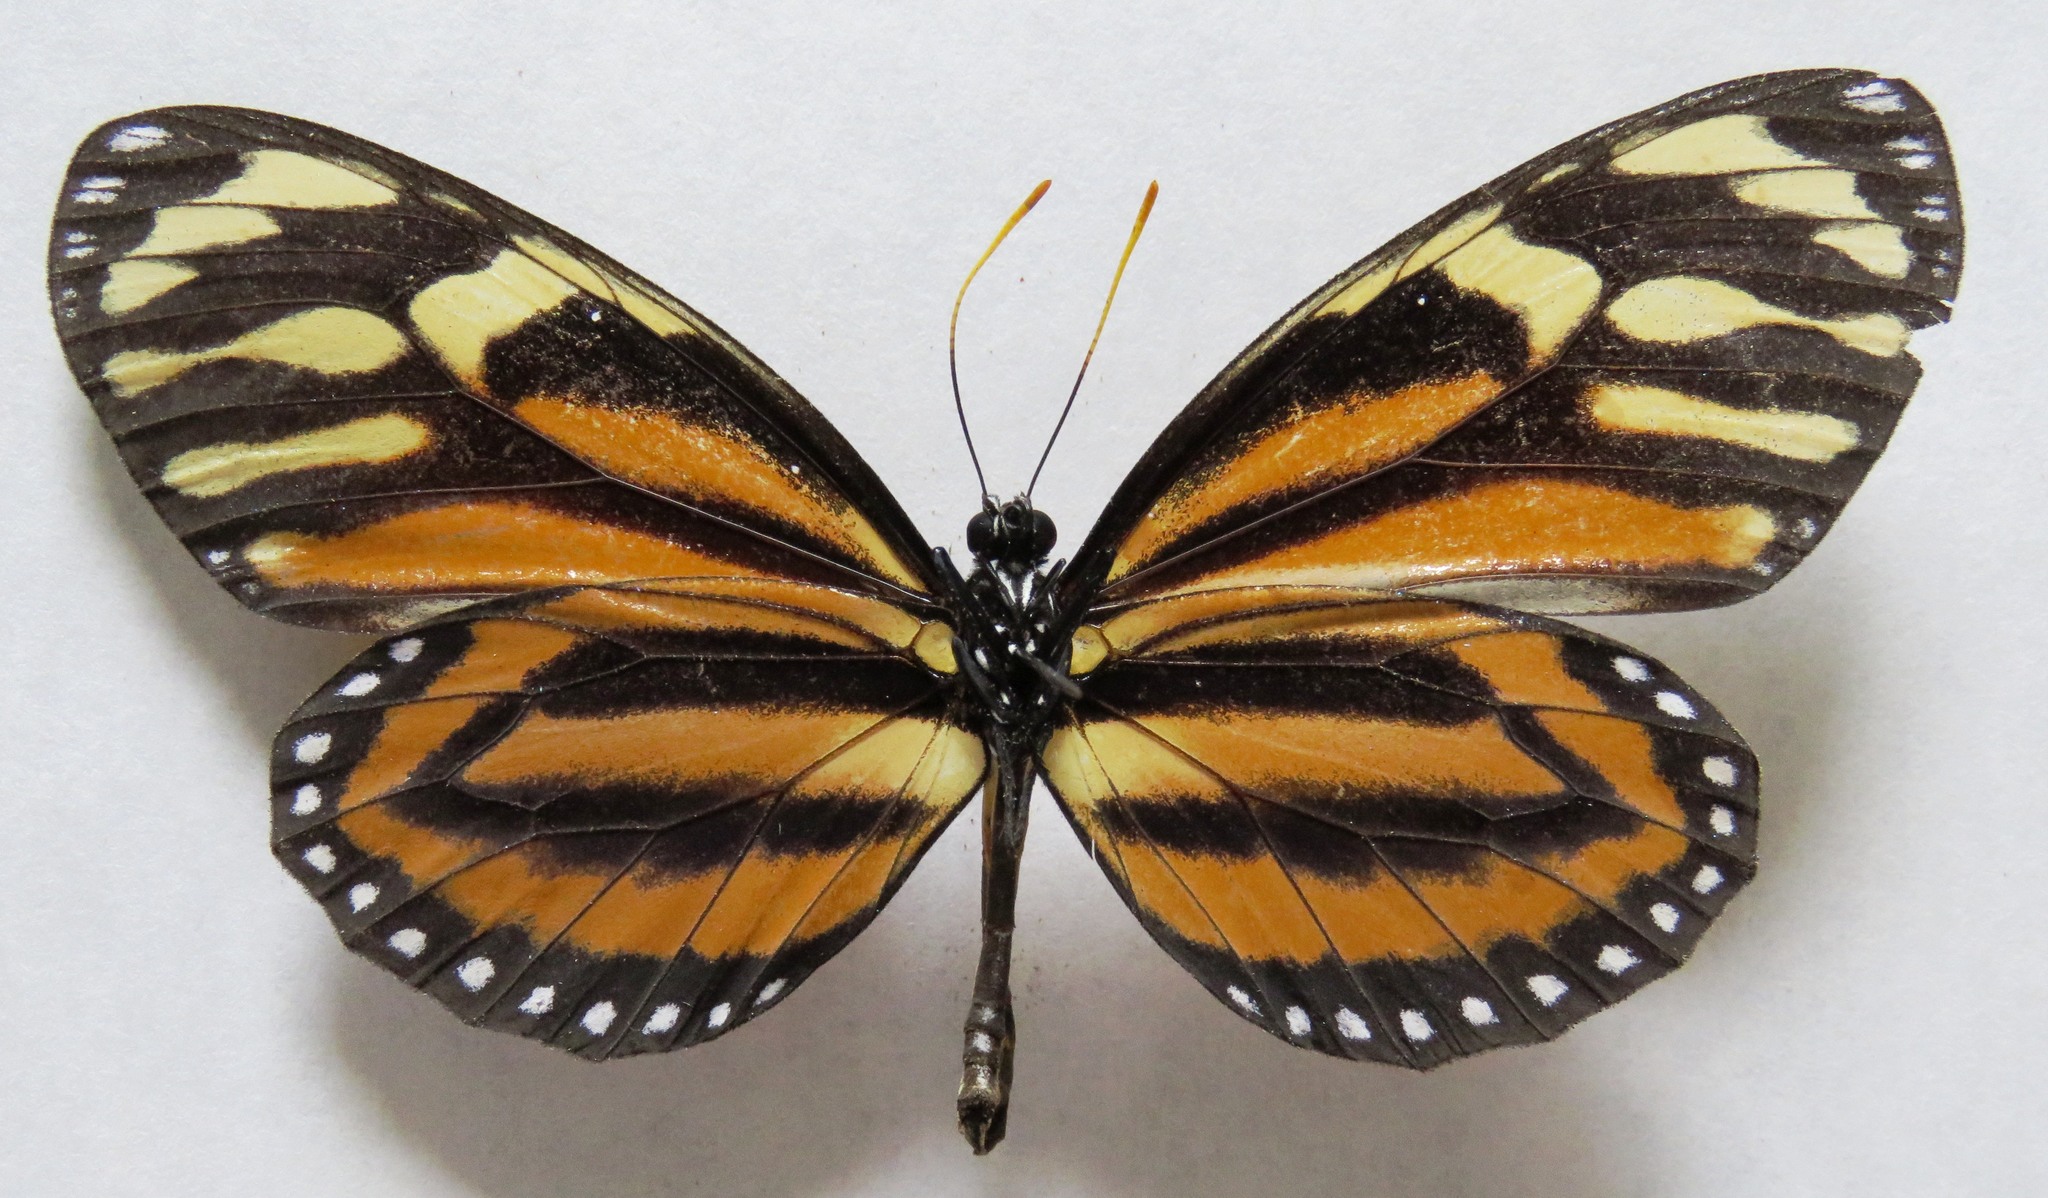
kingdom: Animalia
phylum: Arthropoda
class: Insecta
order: Lepidoptera
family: Nymphalidae
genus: Lycorea
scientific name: Lycorea cleobaea
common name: Tiger mimic-queen
